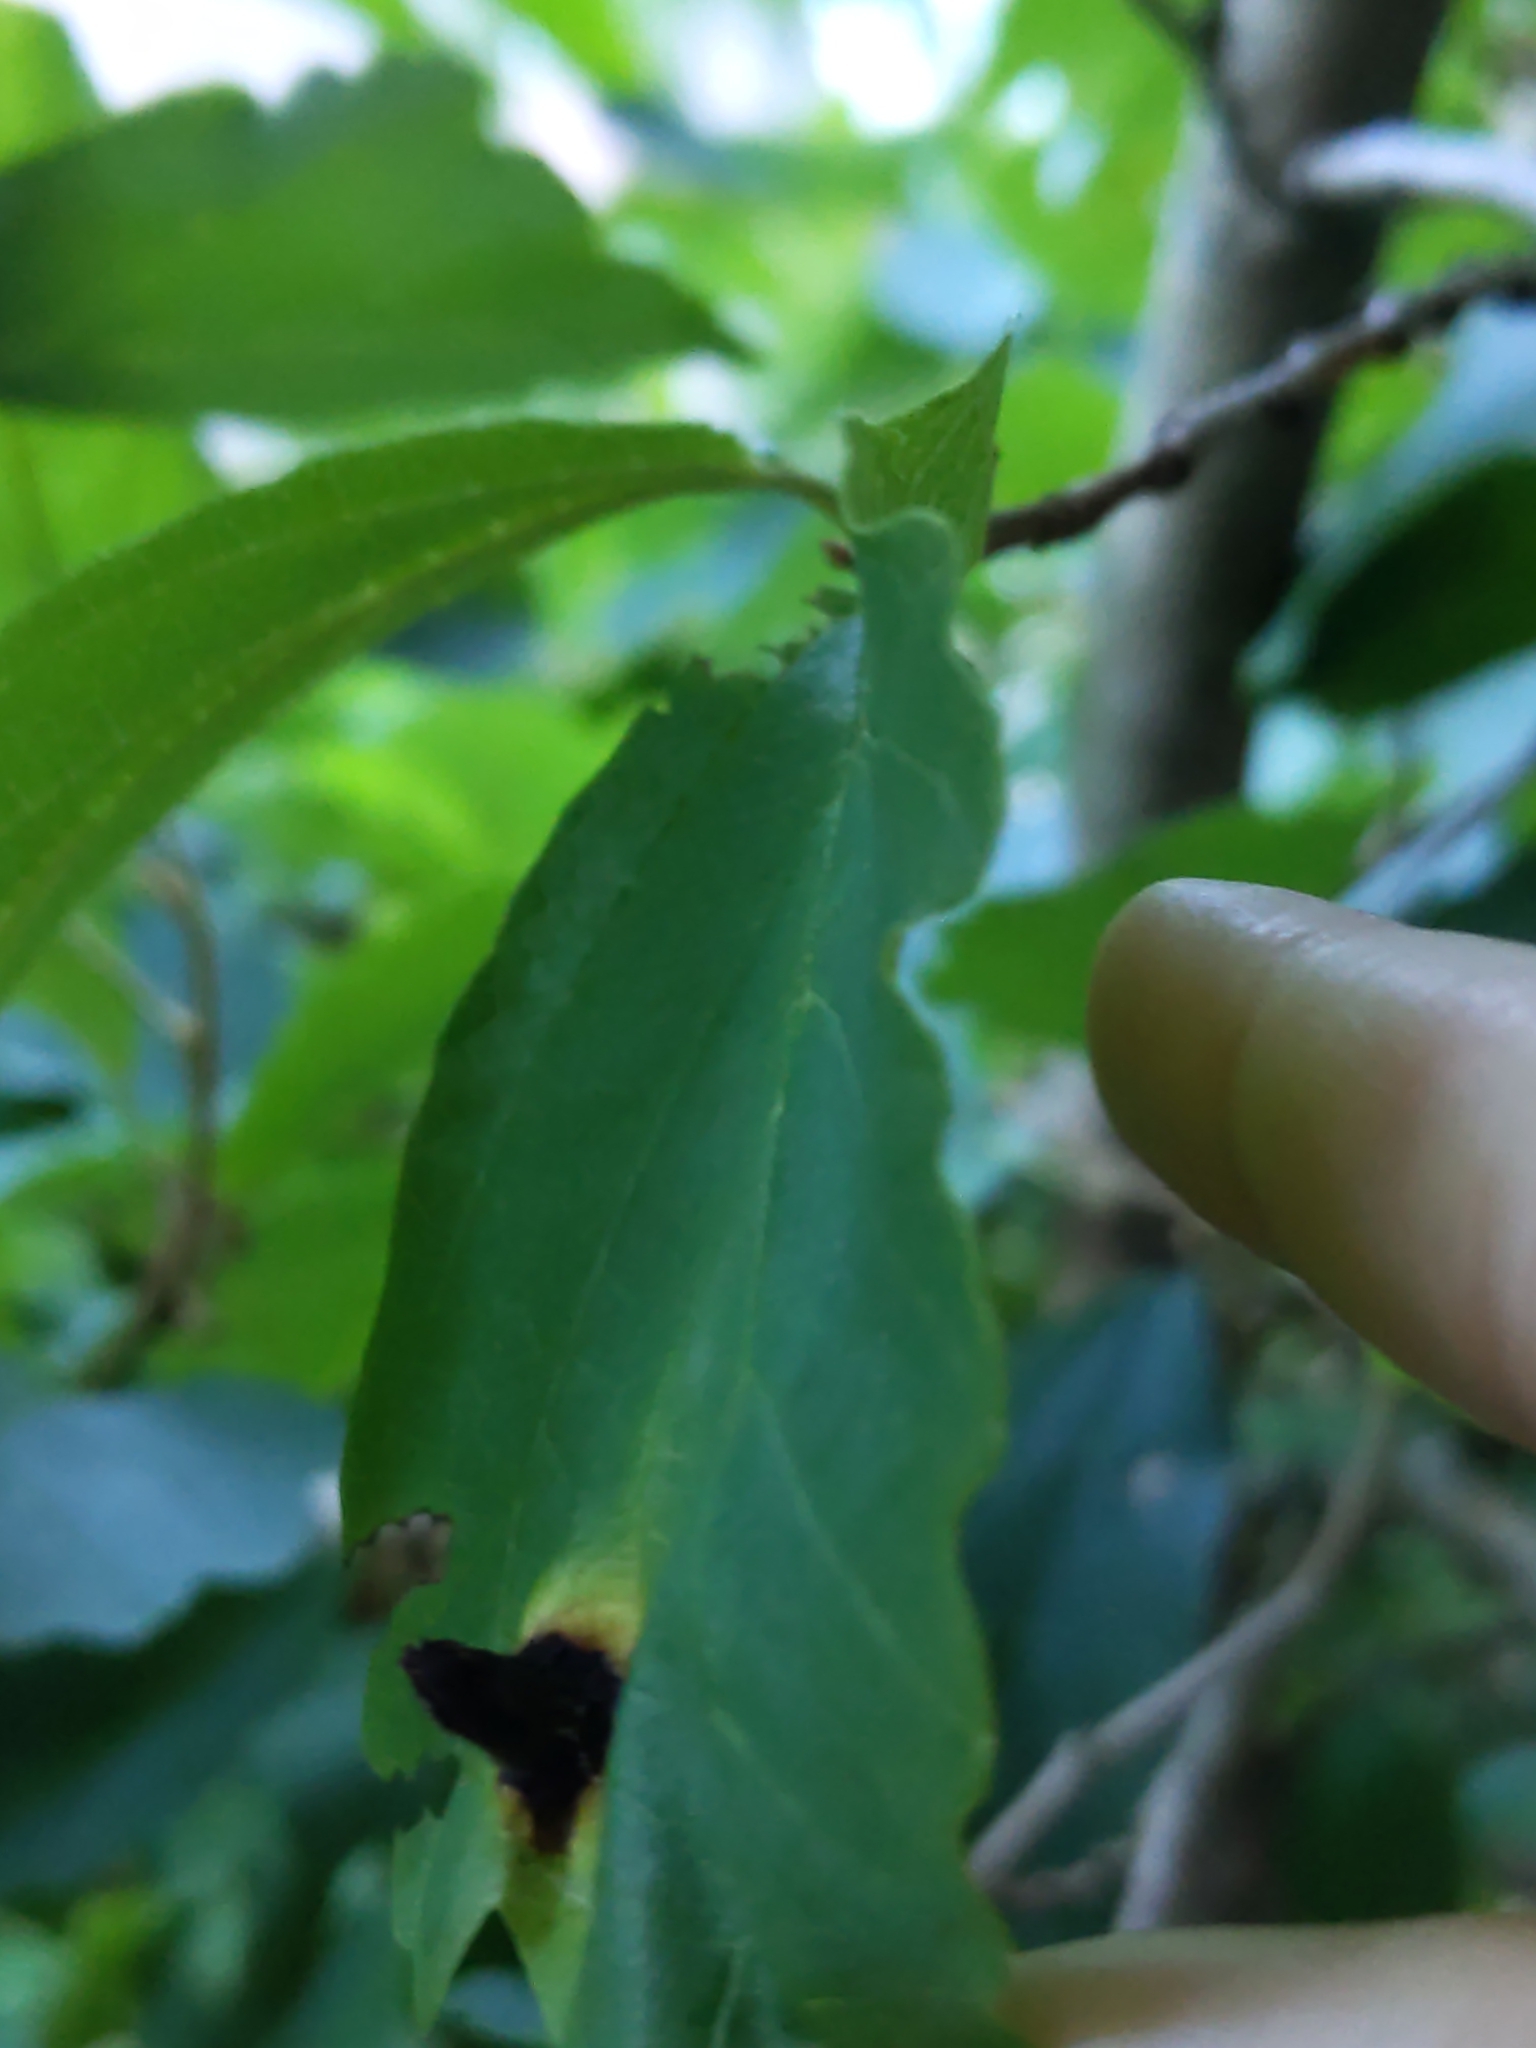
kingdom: Animalia
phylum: Arthropoda
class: Insecta
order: Hemiptera
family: Aphididae
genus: Hormaphis
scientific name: Hormaphis hamamelidis
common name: Witch-hazel cone gall aphid
